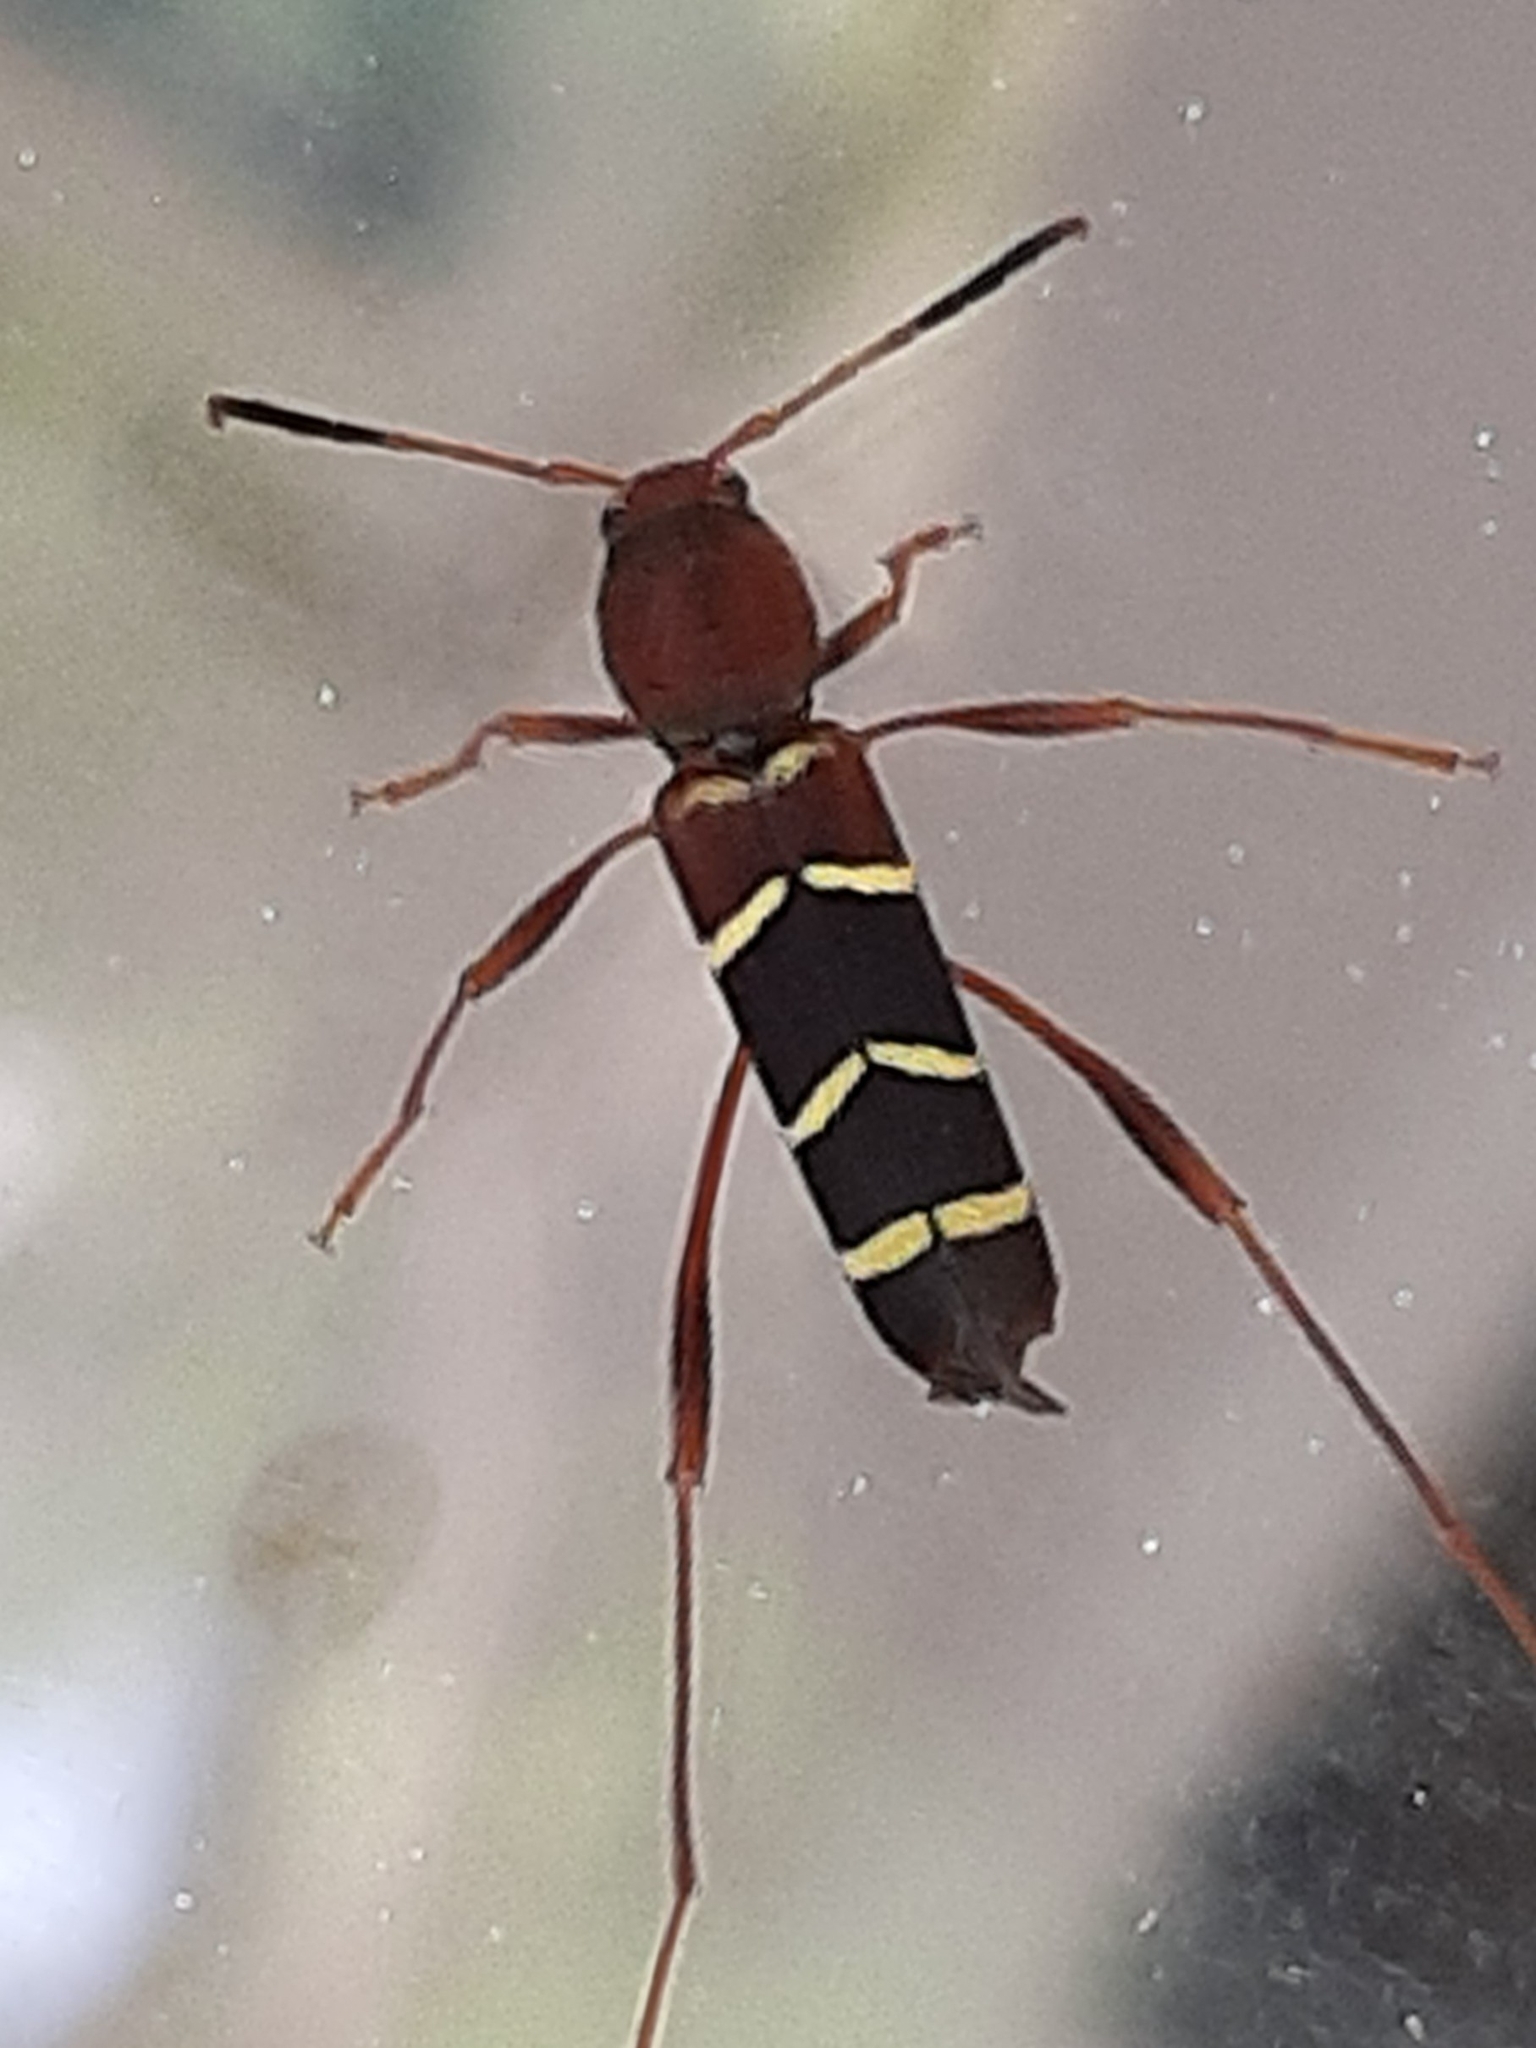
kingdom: Animalia
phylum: Arthropoda
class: Insecta
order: Coleoptera
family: Cerambycidae
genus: Neoclytus
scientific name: Neoclytus acuminatus
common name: Read-headed ash borer
